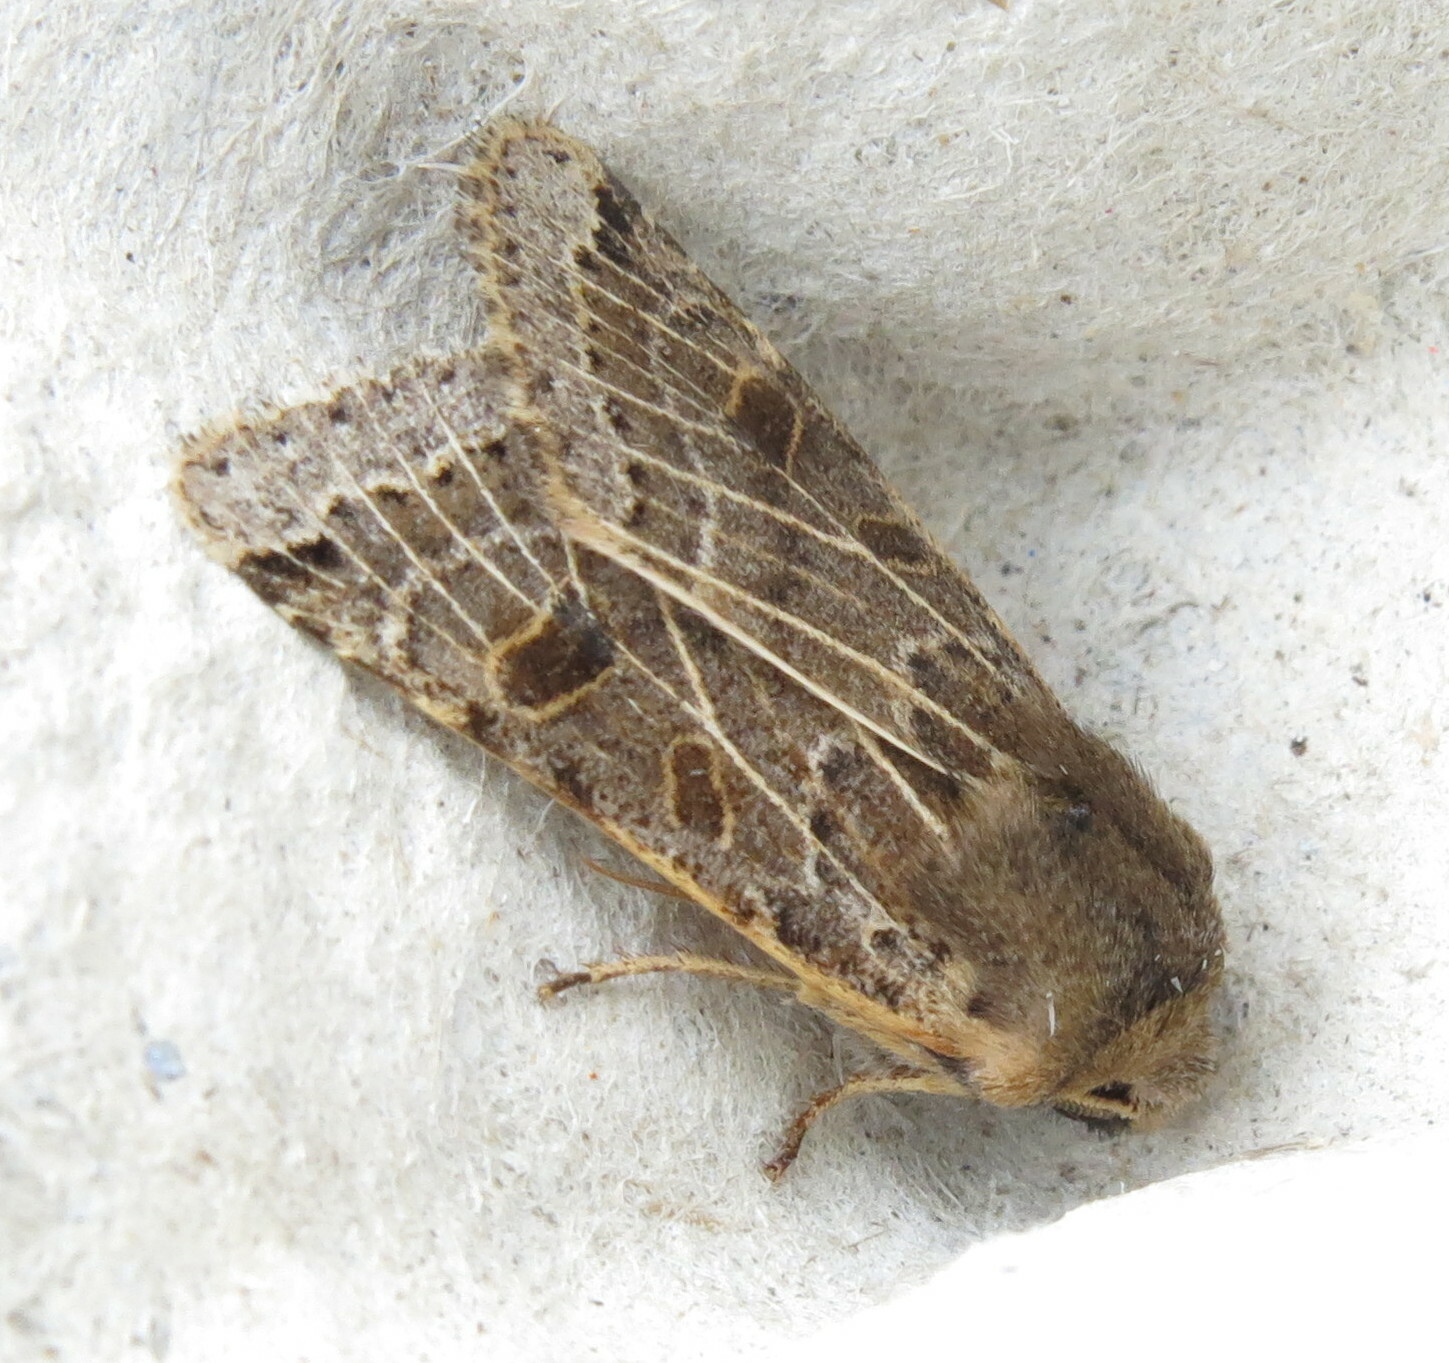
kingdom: Animalia
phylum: Arthropoda
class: Insecta
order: Lepidoptera
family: Noctuidae
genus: Agrochola
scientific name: Agrochola lunosa
